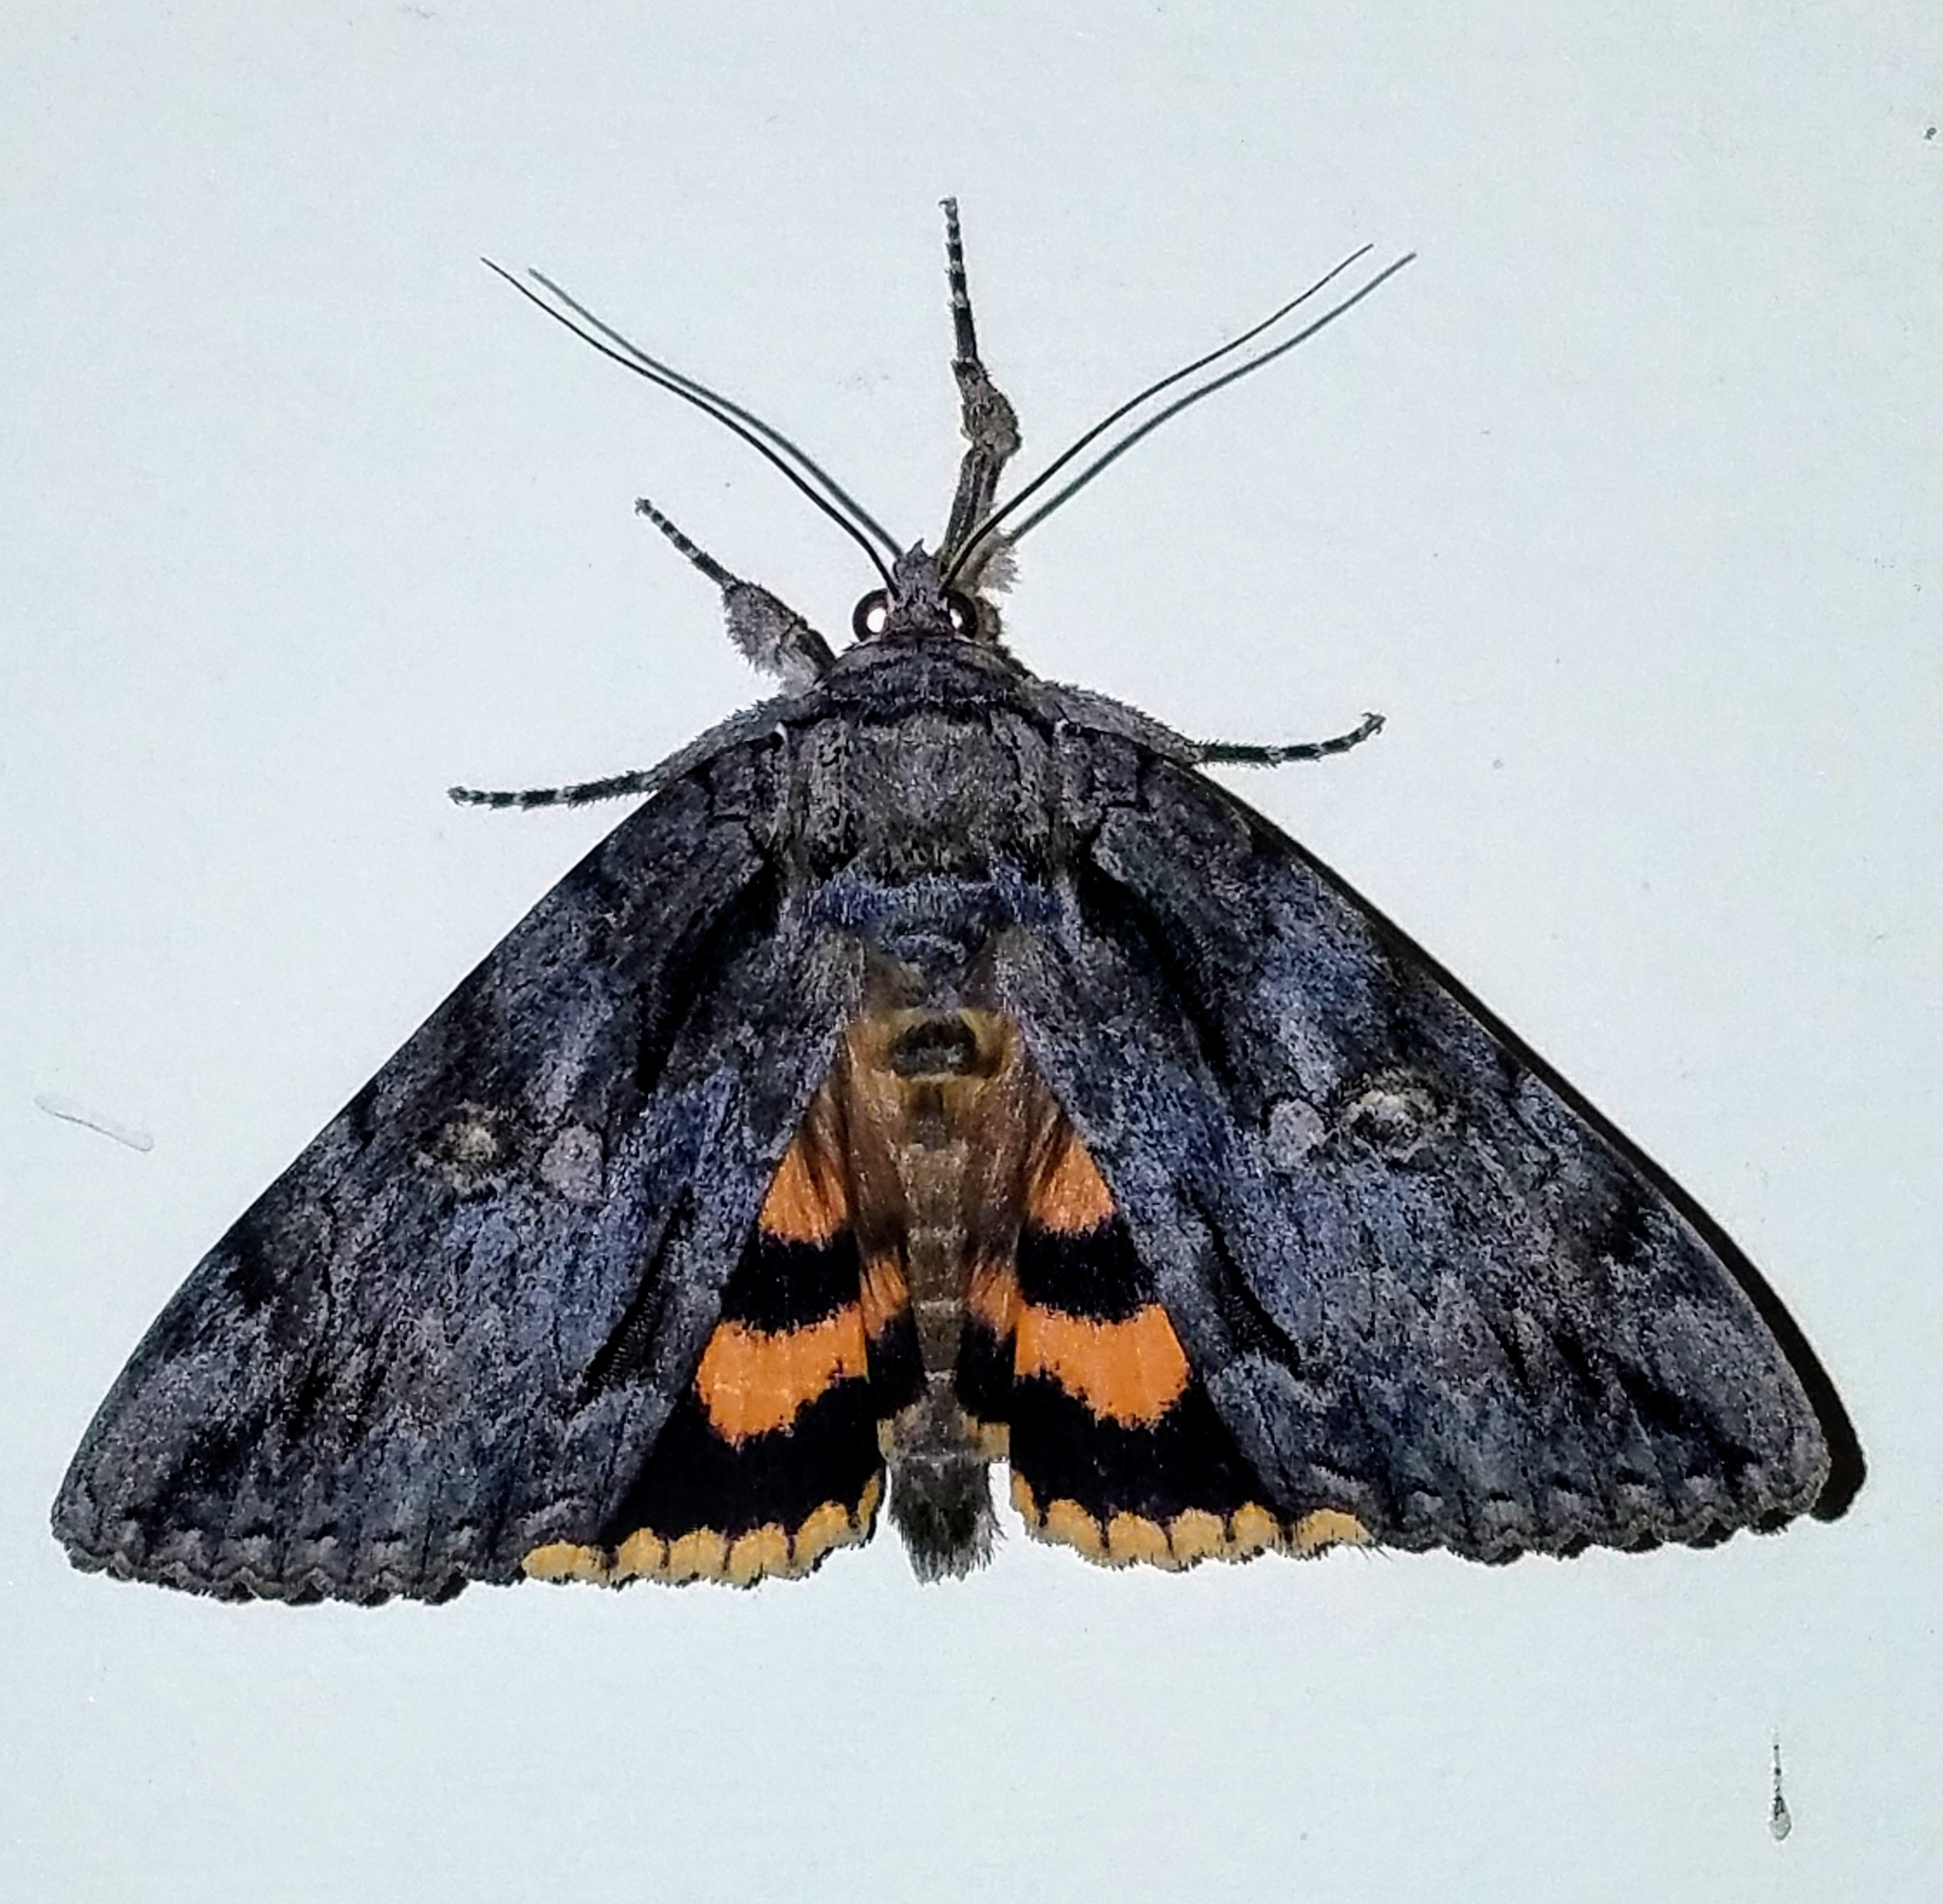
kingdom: Animalia
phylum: Arthropoda
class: Insecta
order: Lepidoptera
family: Erebidae
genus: Catocala
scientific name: Catocala neogama
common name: Bride underwing
